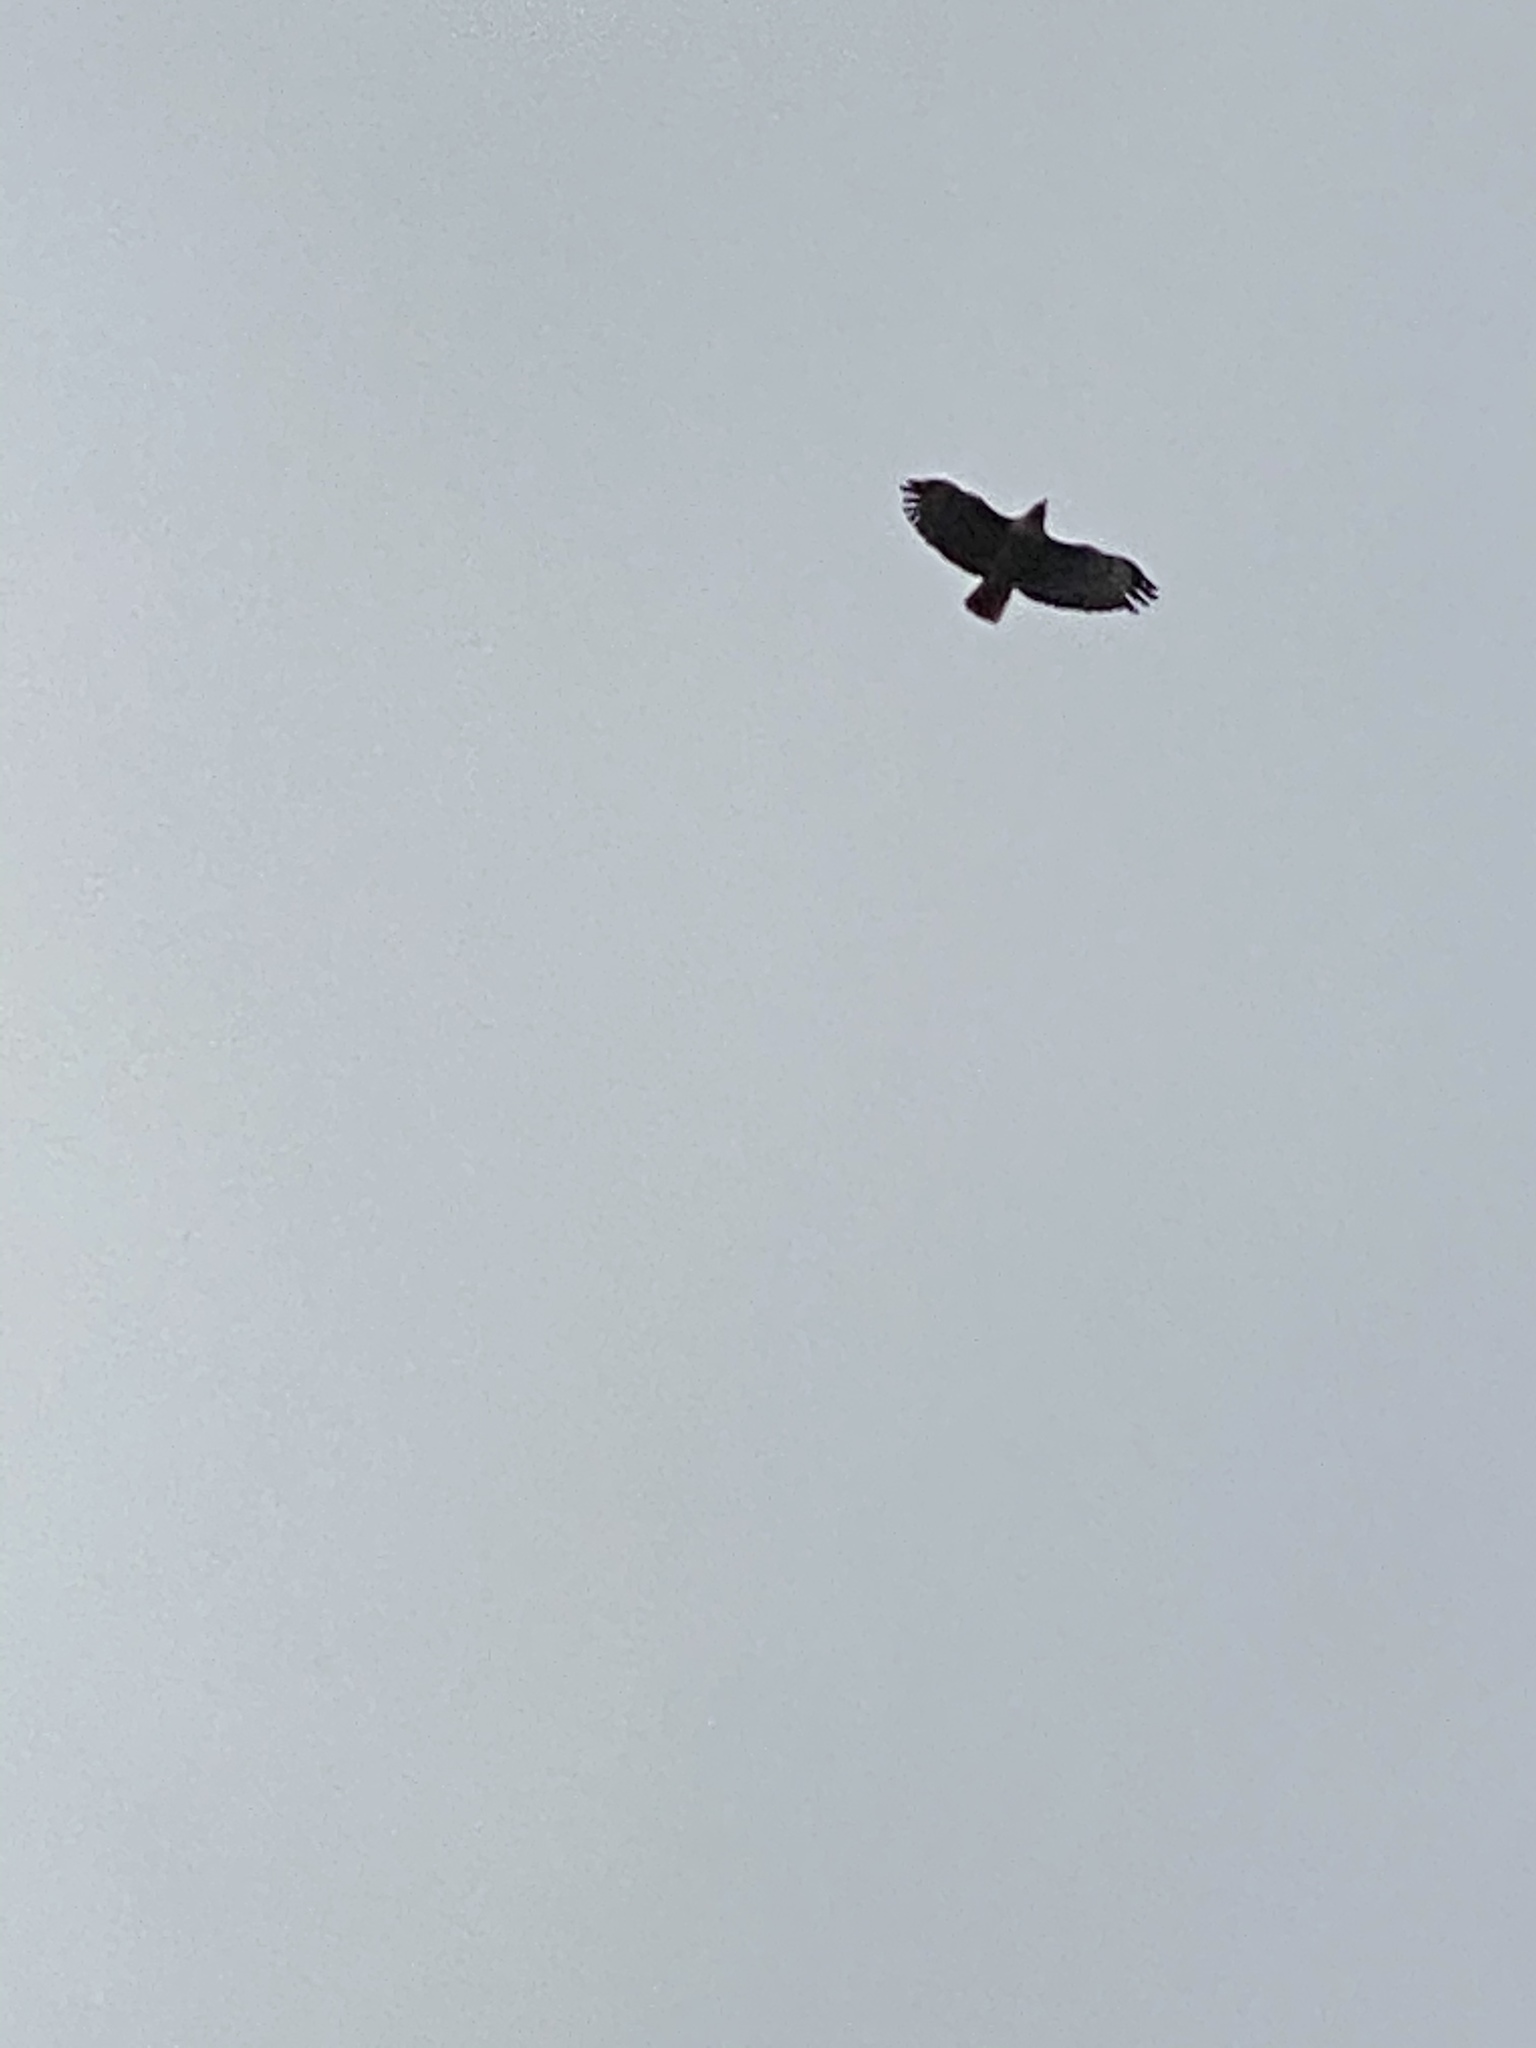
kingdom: Animalia
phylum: Chordata
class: Aves
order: Accipitriformes
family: Accipitridae
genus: Buteo
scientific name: Buteo jamaicensis
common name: Red-tailed hawk
